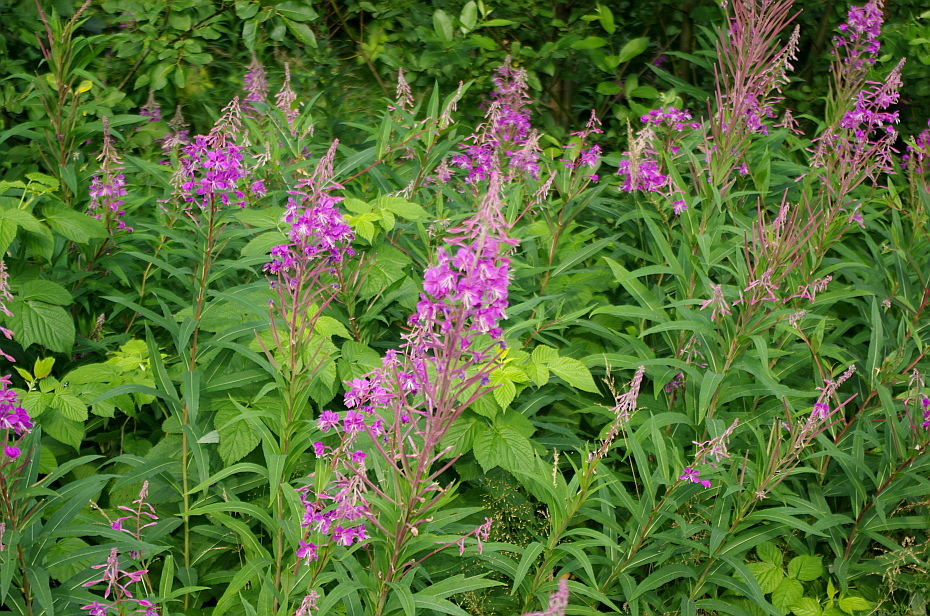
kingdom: Plantae
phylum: Tracheophyta
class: Magnoliopsida
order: Myrtales
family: Onagraceae
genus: Chamaenerion
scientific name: Chamaenerion angustifolium
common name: Fireweed
